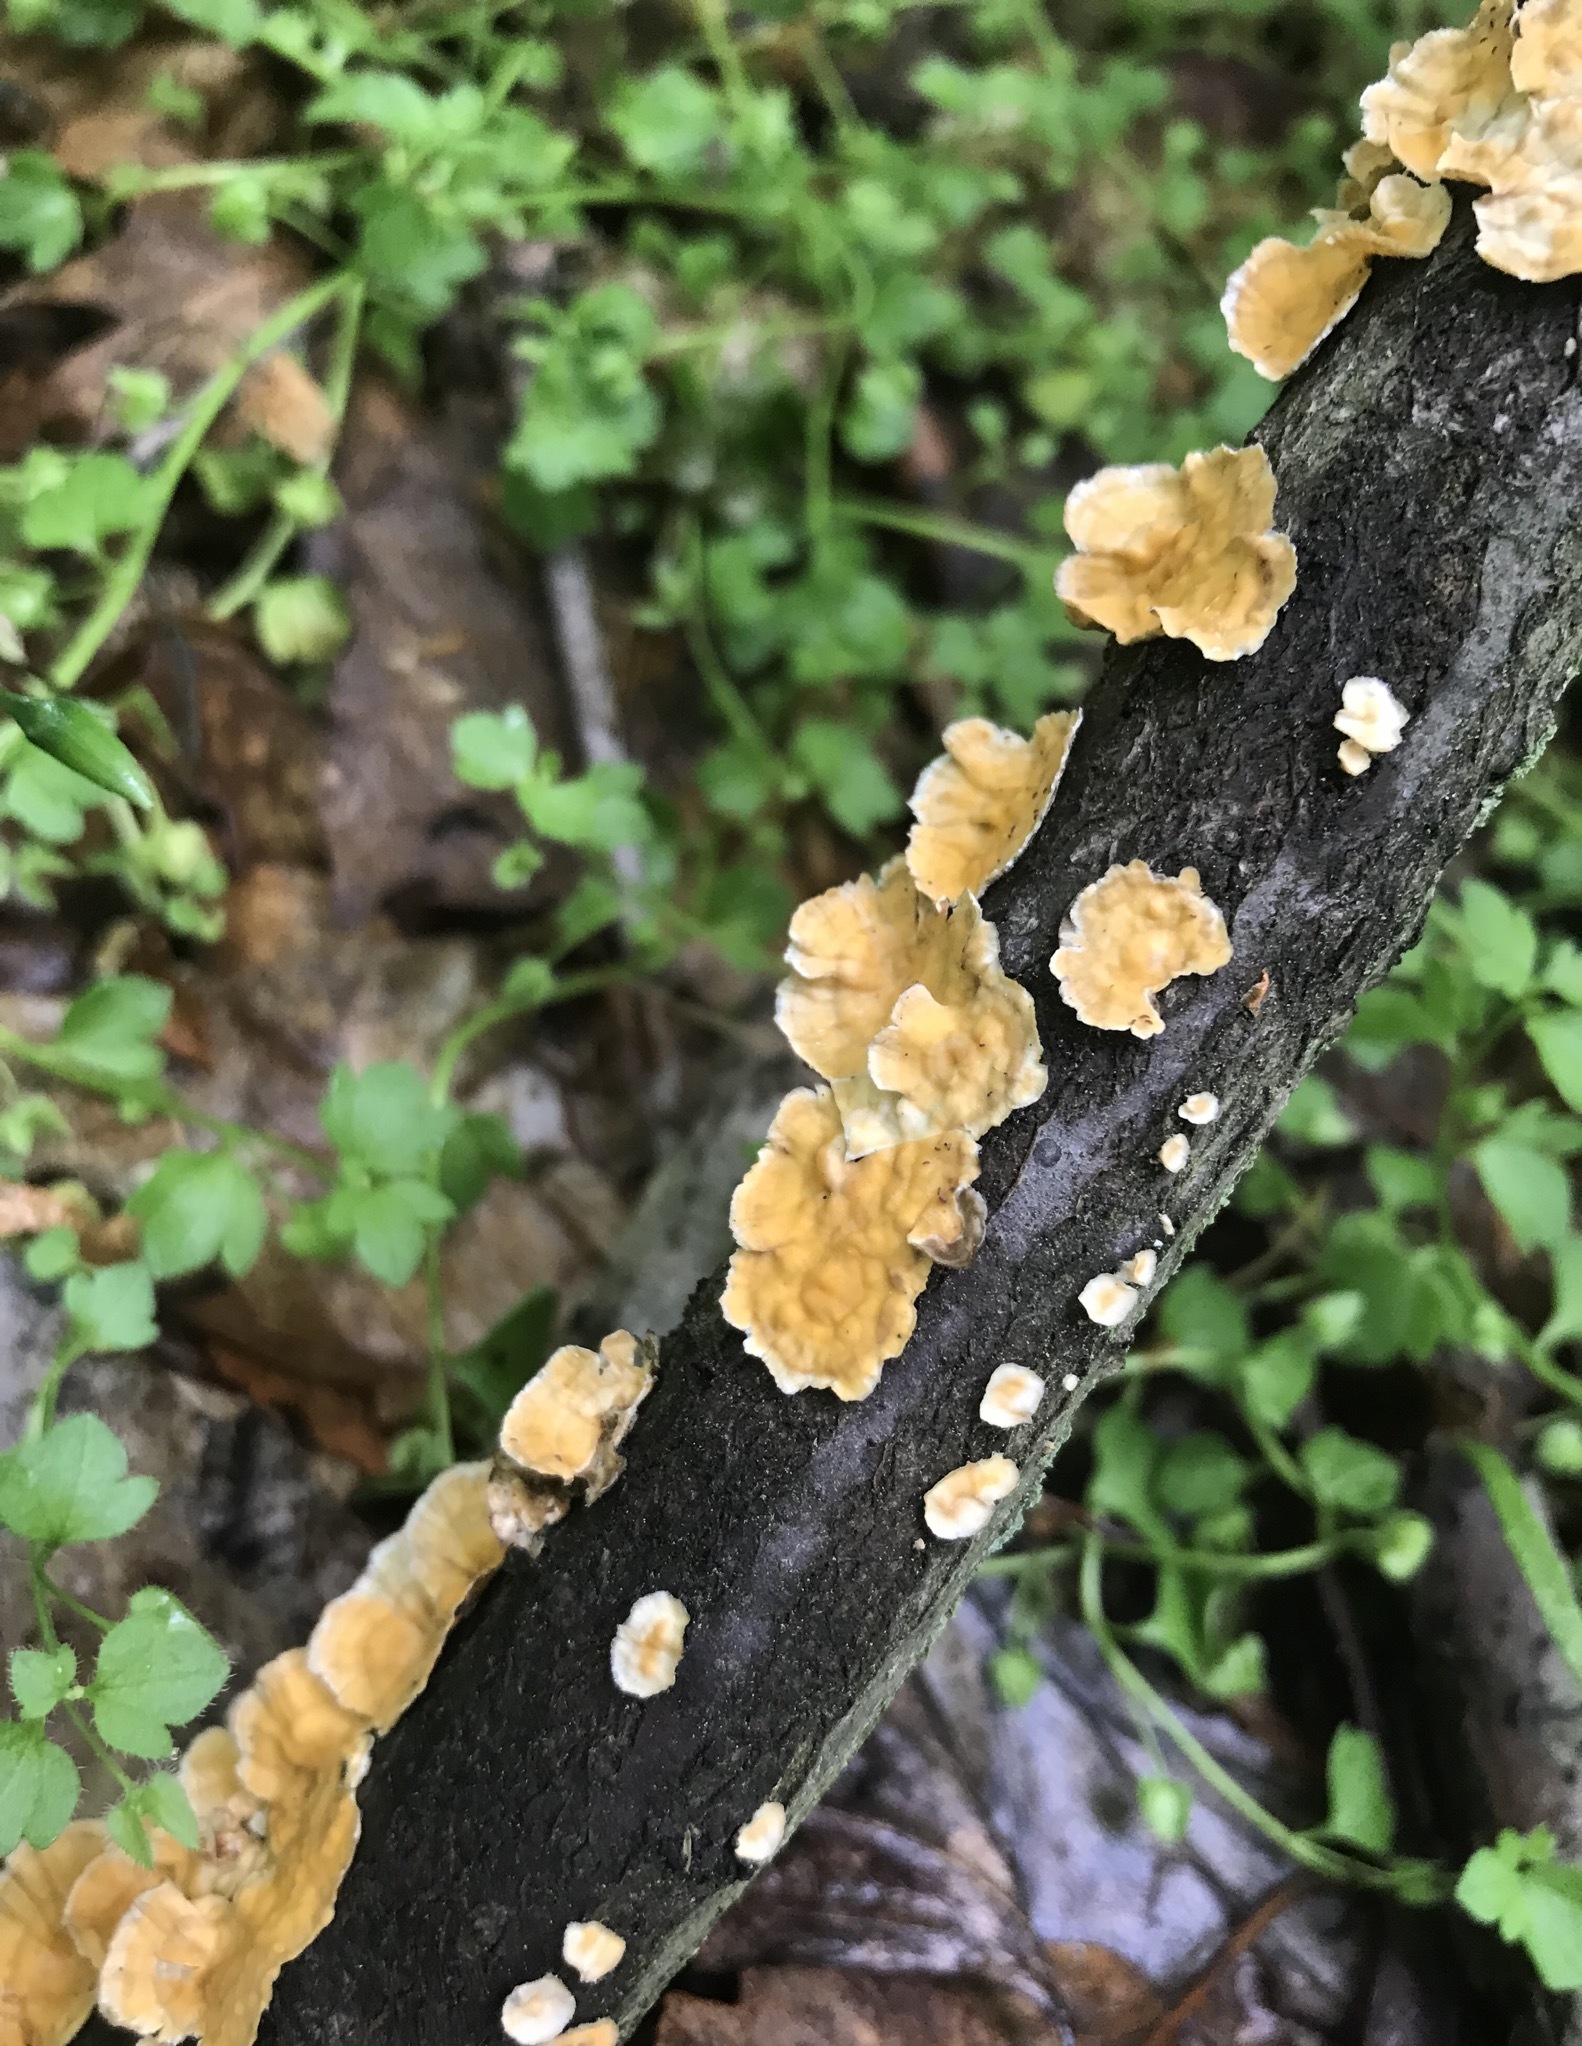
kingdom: Fungi
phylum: Basidiomycota
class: Agaricomycetes
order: Russulales
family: Stereaceae
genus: Stereum
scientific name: Stereum complicatum
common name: Crowded parchment
